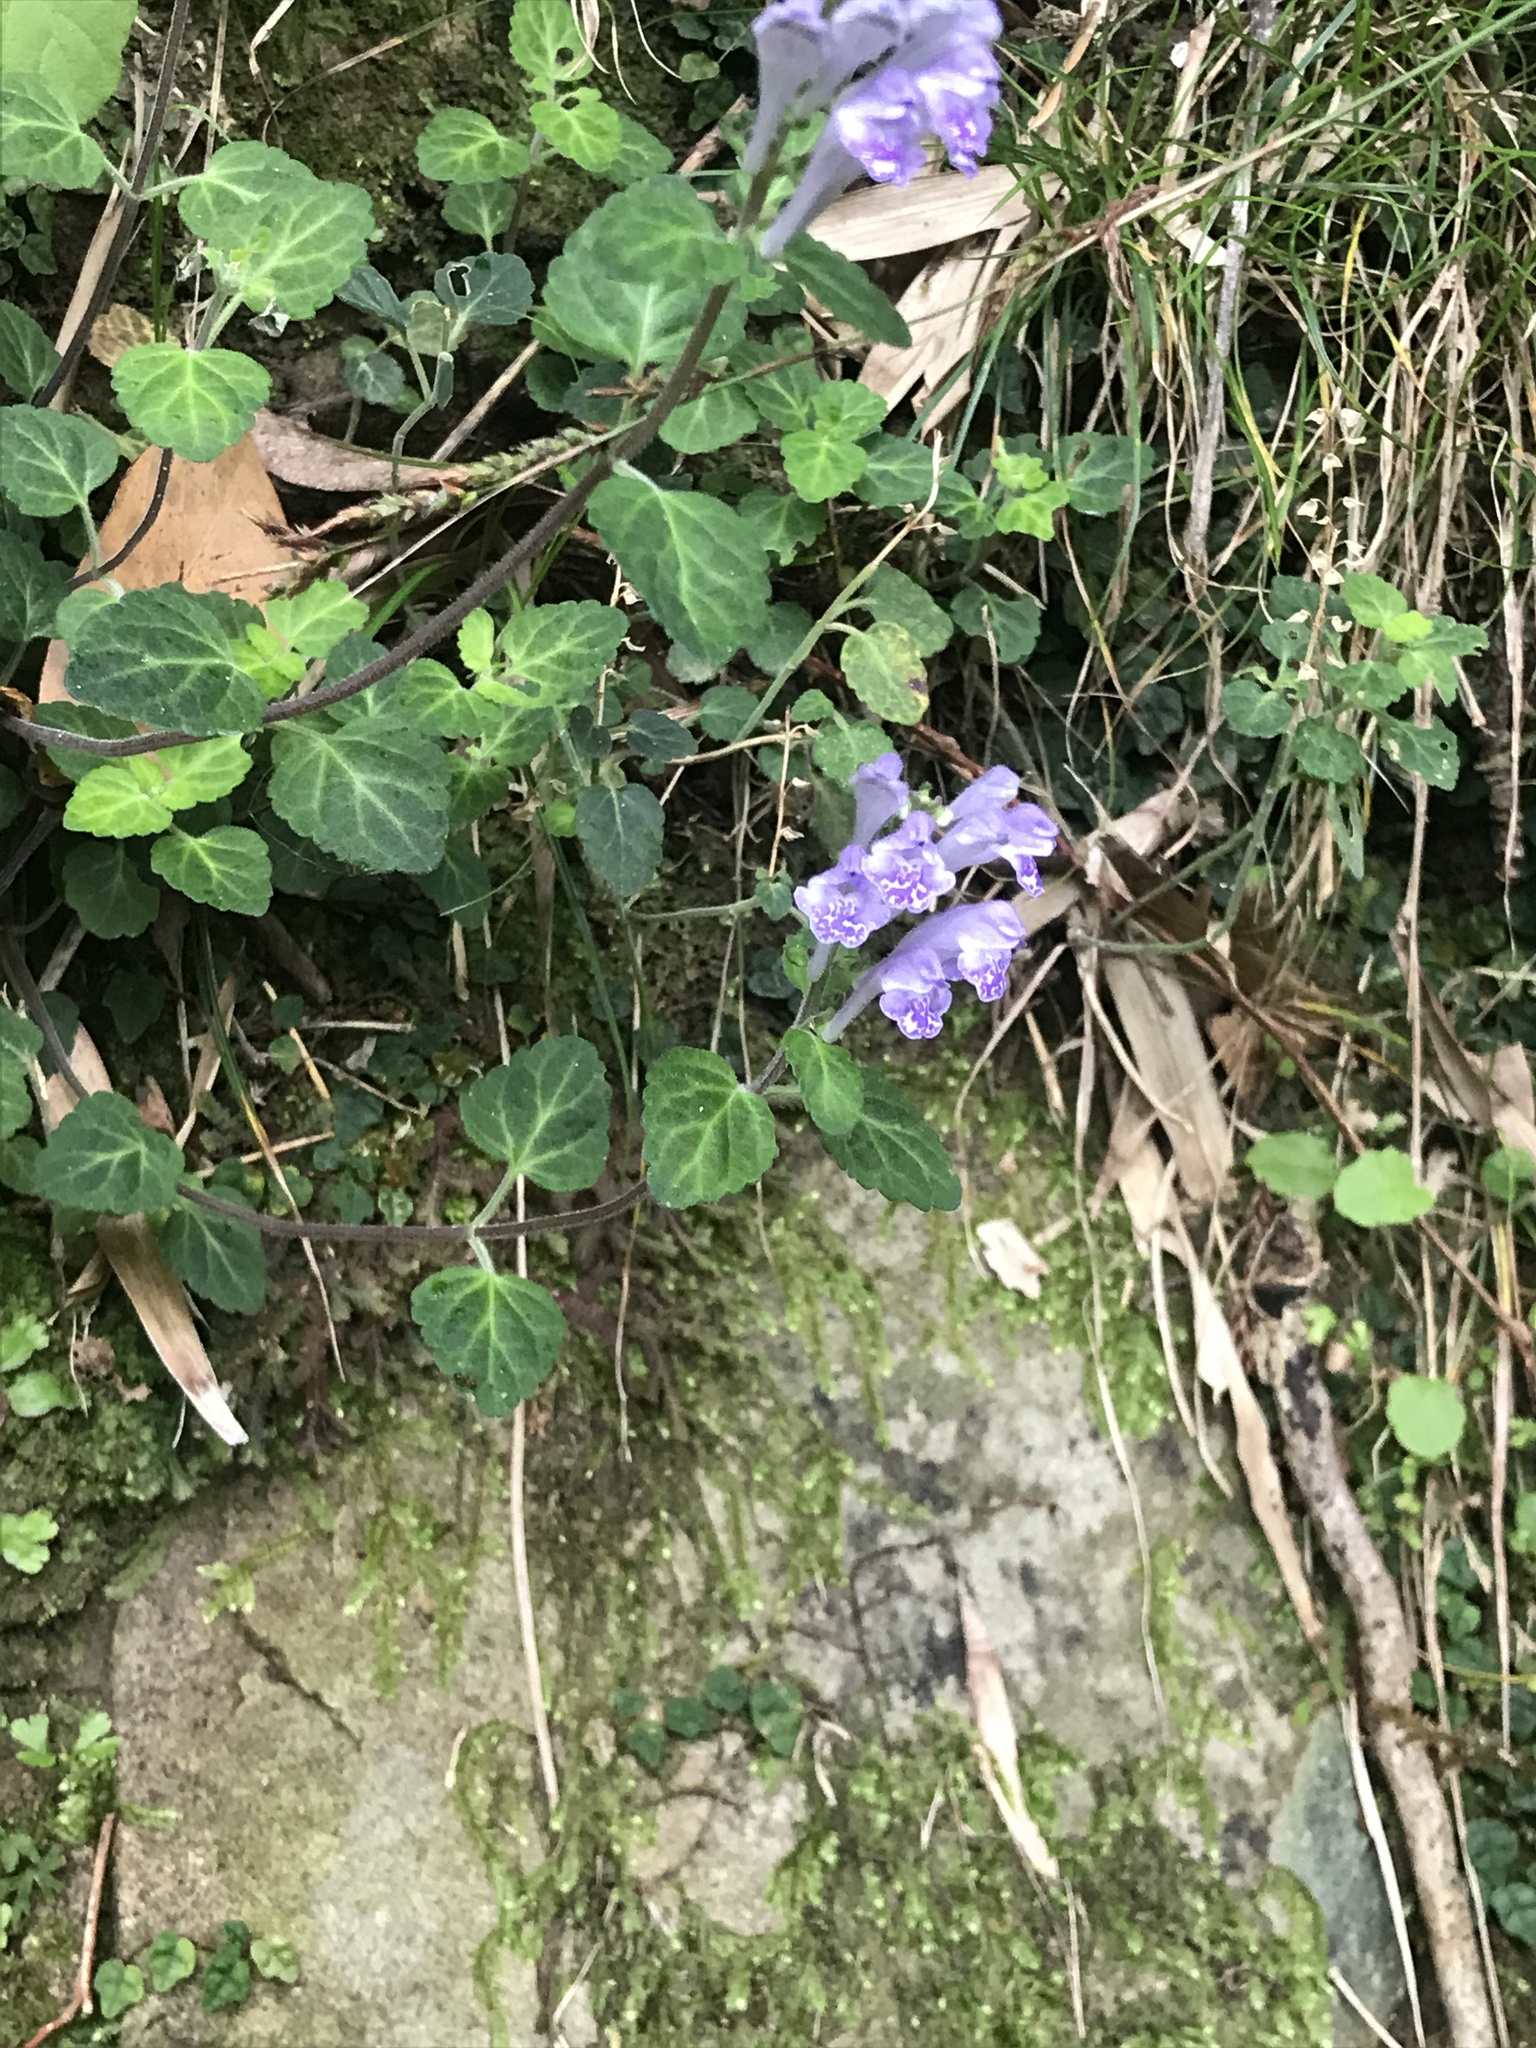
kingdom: Plantae
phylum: Tracheophyta
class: Magnoliopsida
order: Lamiales
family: Lamiaceae
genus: Scutellaria
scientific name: Scutellaria indica
